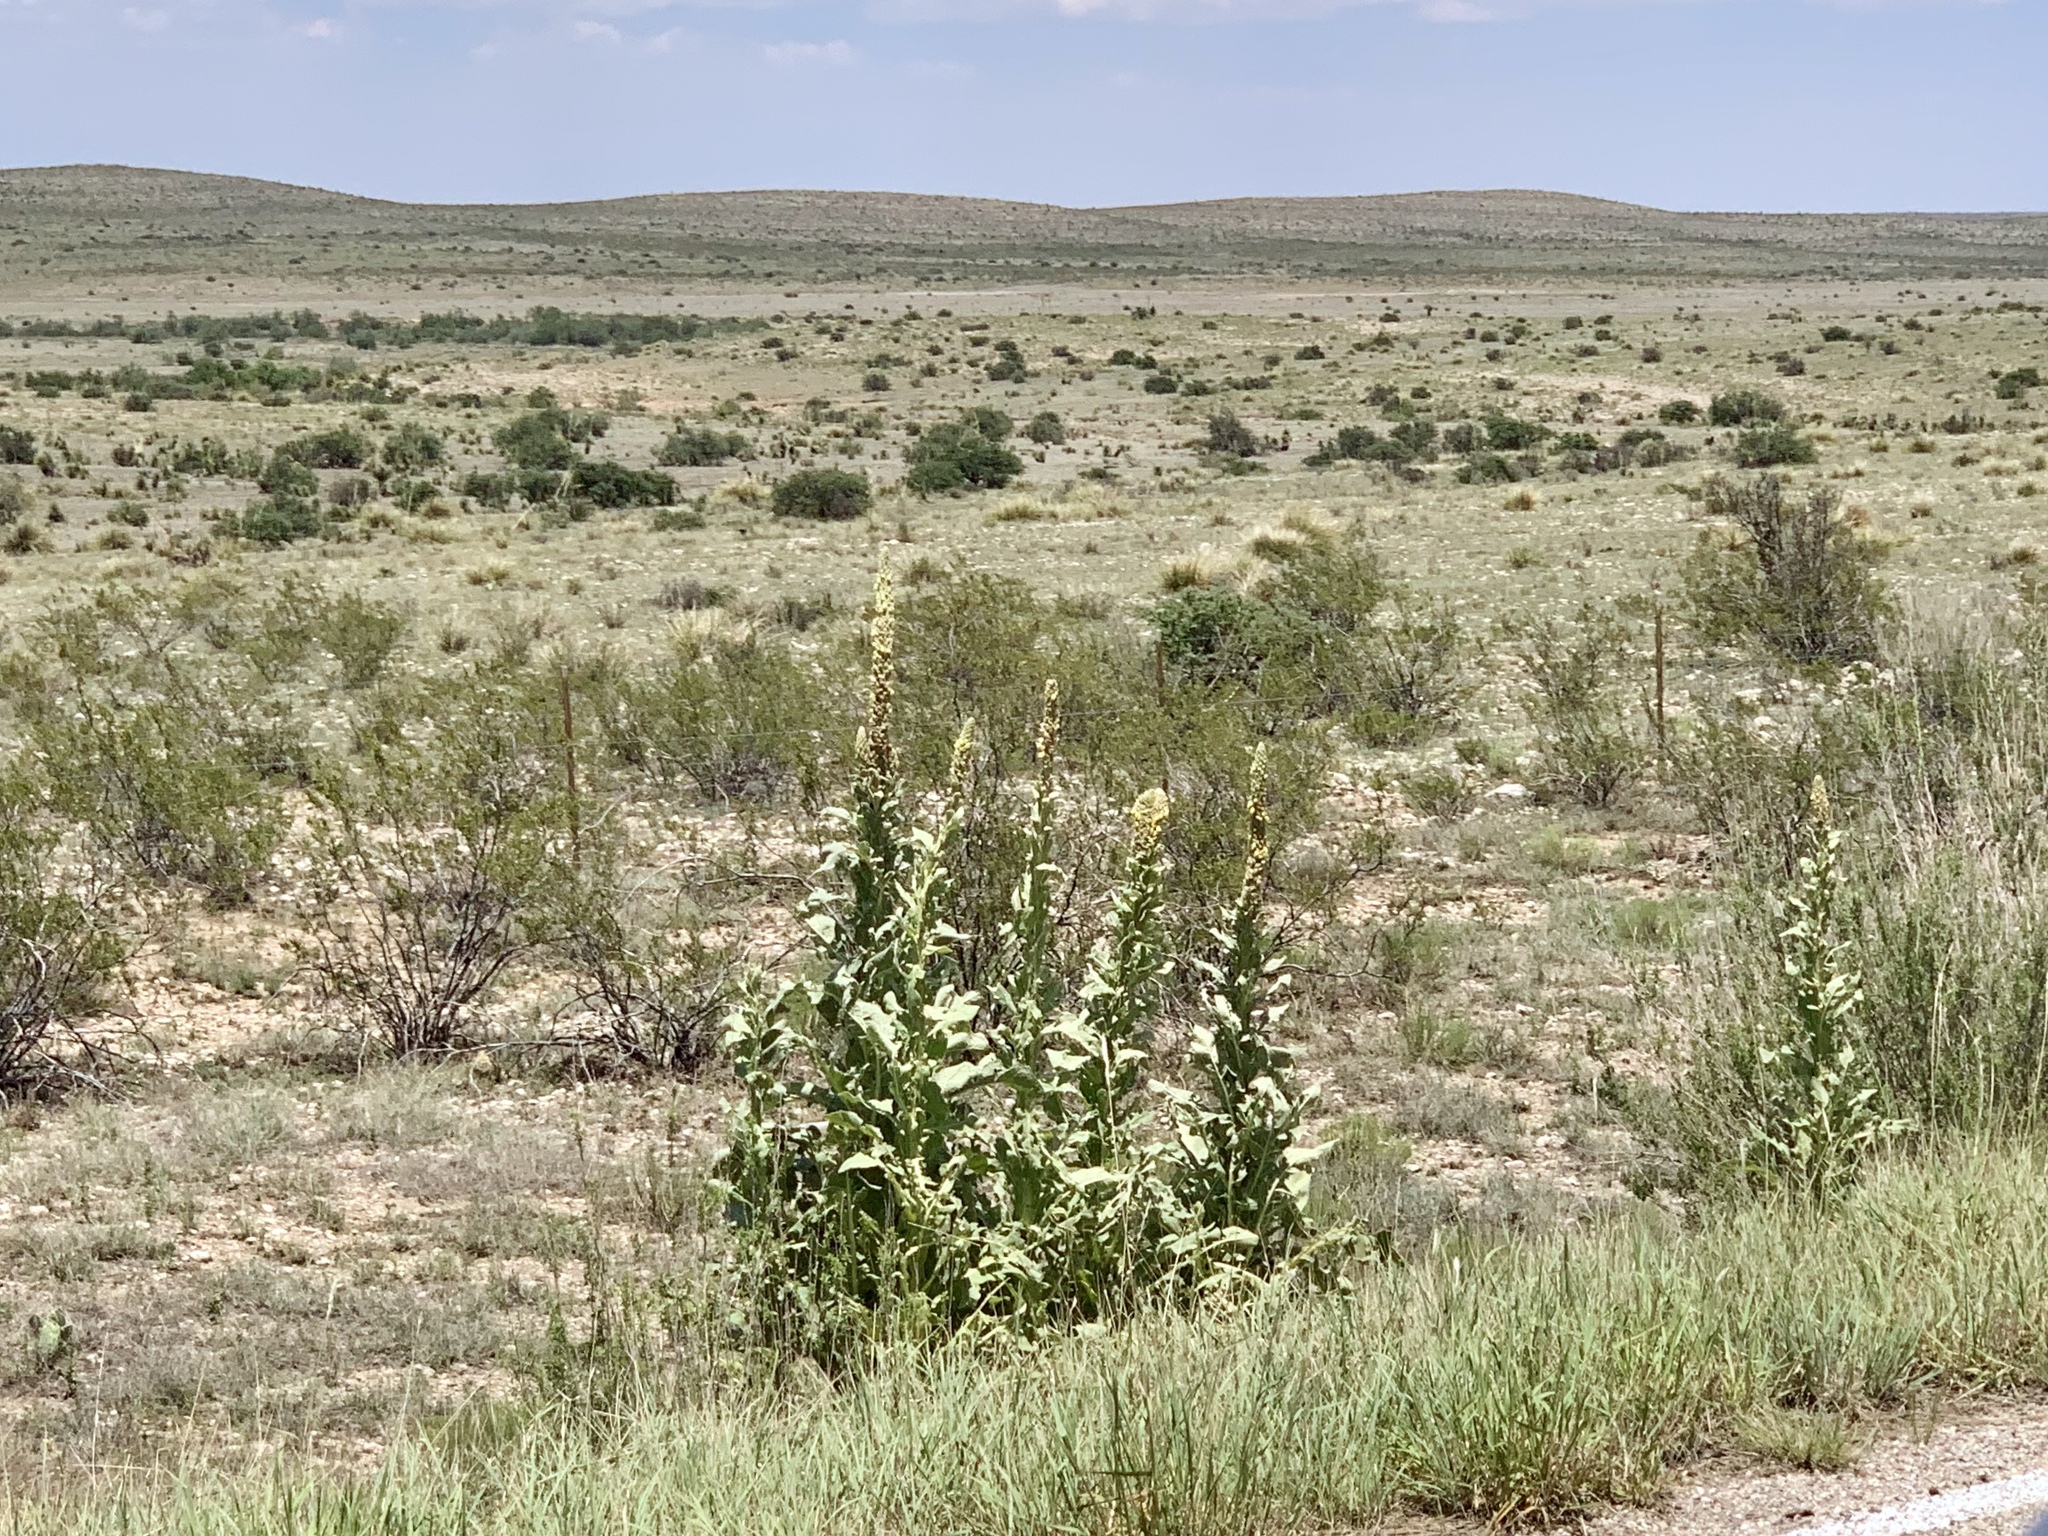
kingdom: Plantae
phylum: Tracheophyta
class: Magnoliopsida
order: Lamiales
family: Scrophulariaceae
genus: Verbascum
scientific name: Verbascum thapsus
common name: Common mullein
